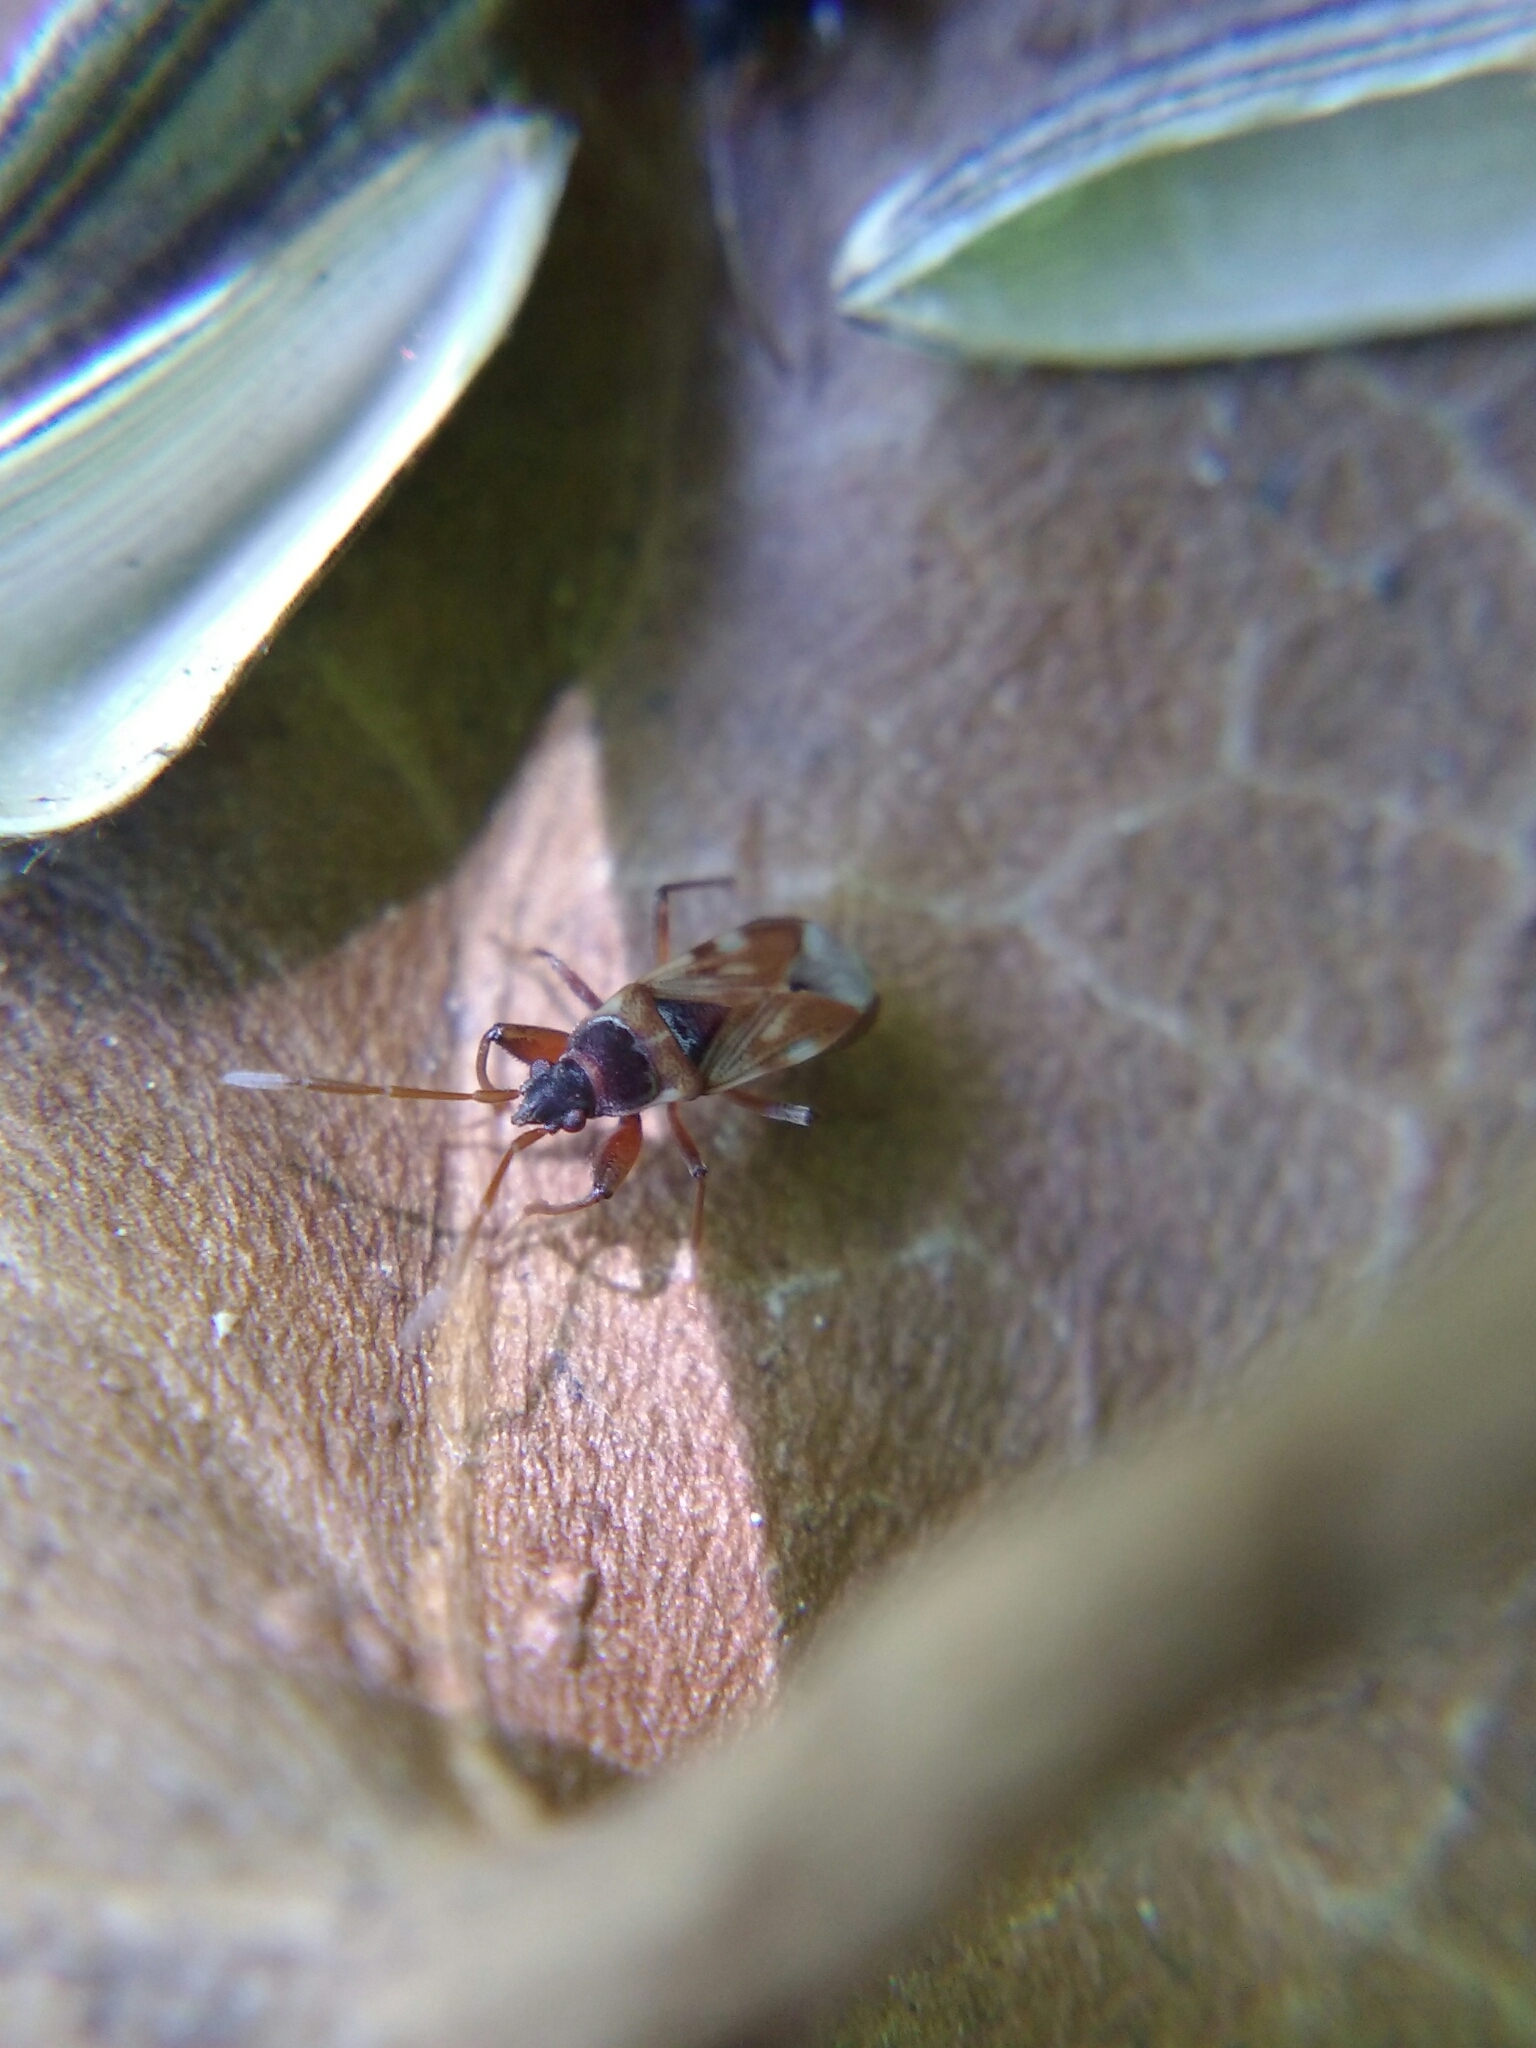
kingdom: Animalia
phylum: Arthropoda
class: Insecta
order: Hemiptera
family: Rhyparochromidae
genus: Scolopostethus
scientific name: Scolopostethus pictus
